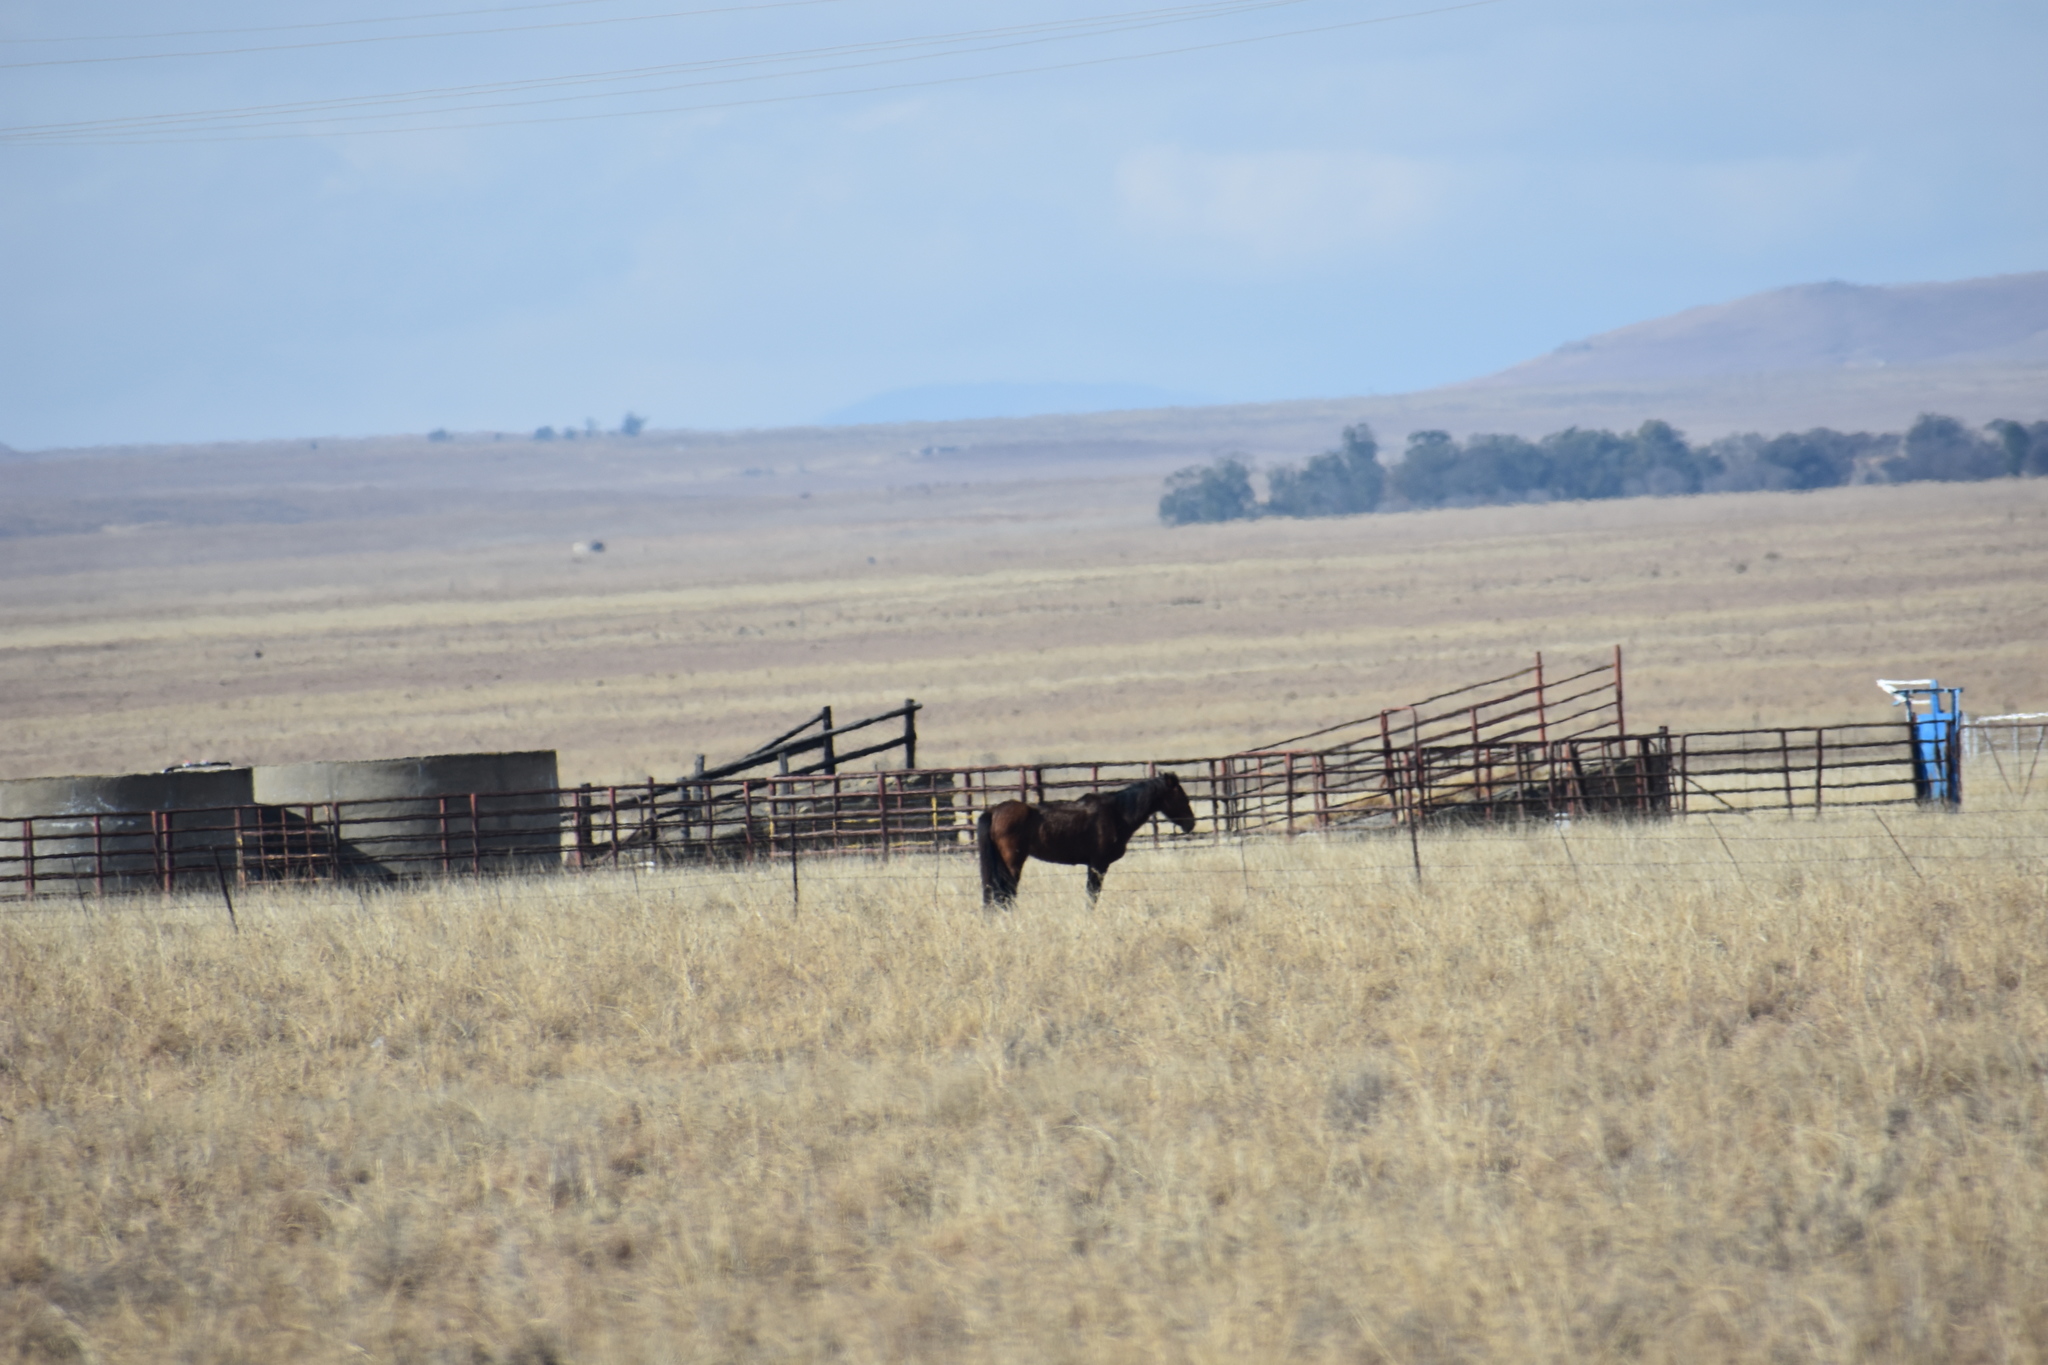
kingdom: Animalia
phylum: Chordata
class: Mammalia
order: Perissodactyla
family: Equidae
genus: Equus
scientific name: Equus caballus
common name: Horse
